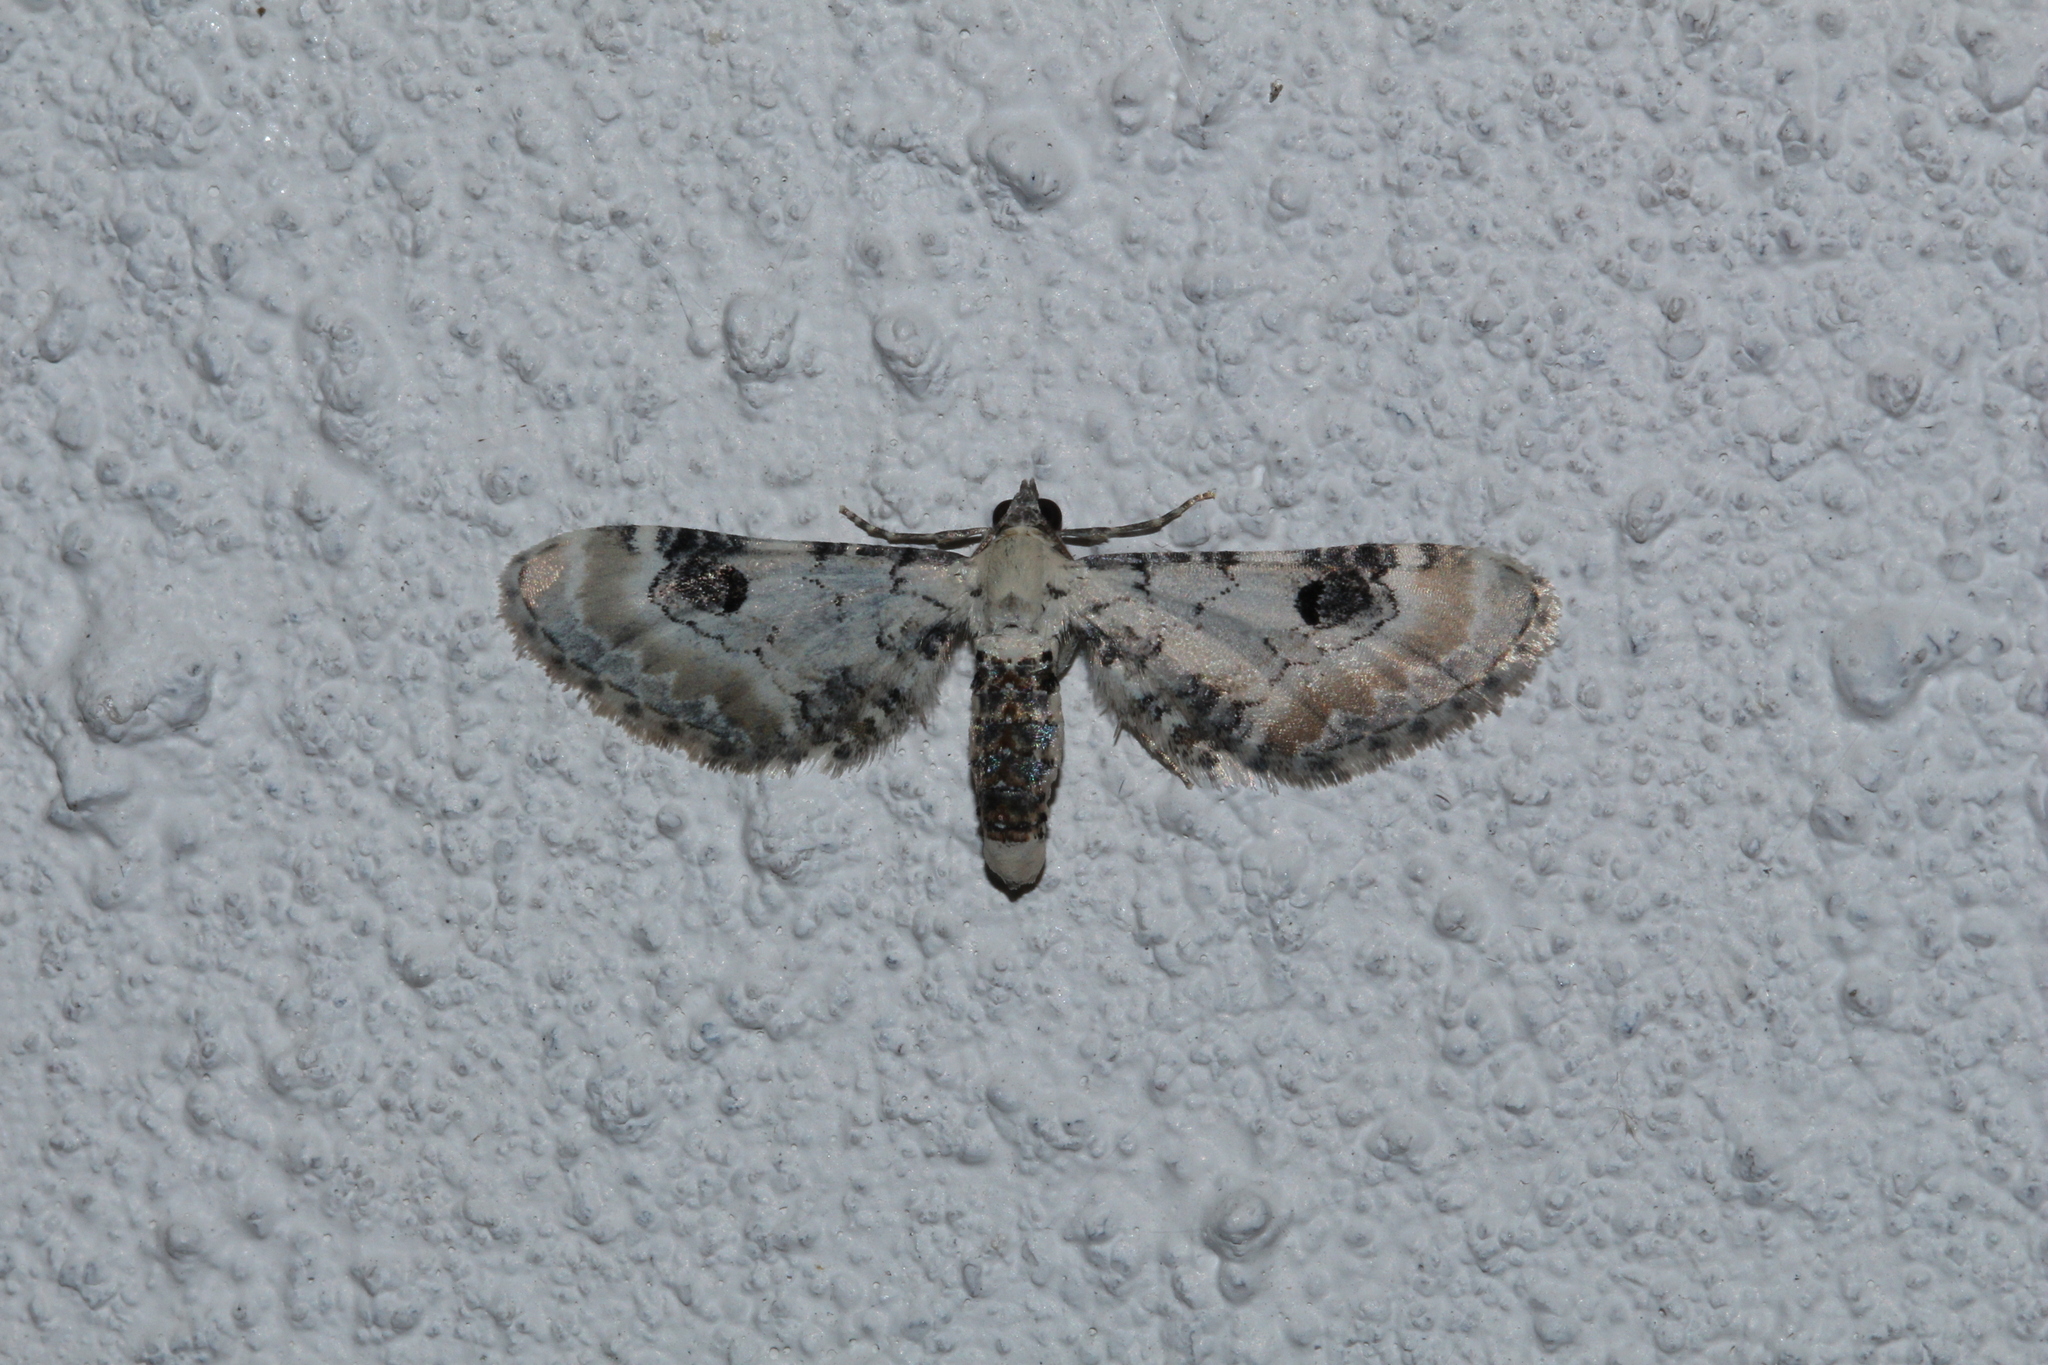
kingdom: Animalia
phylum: Arthropoda
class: Insecta
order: Lepidoptera
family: Geometridae
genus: Eupithecia
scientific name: Eupithecia centaureata
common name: Lime-speck pug
